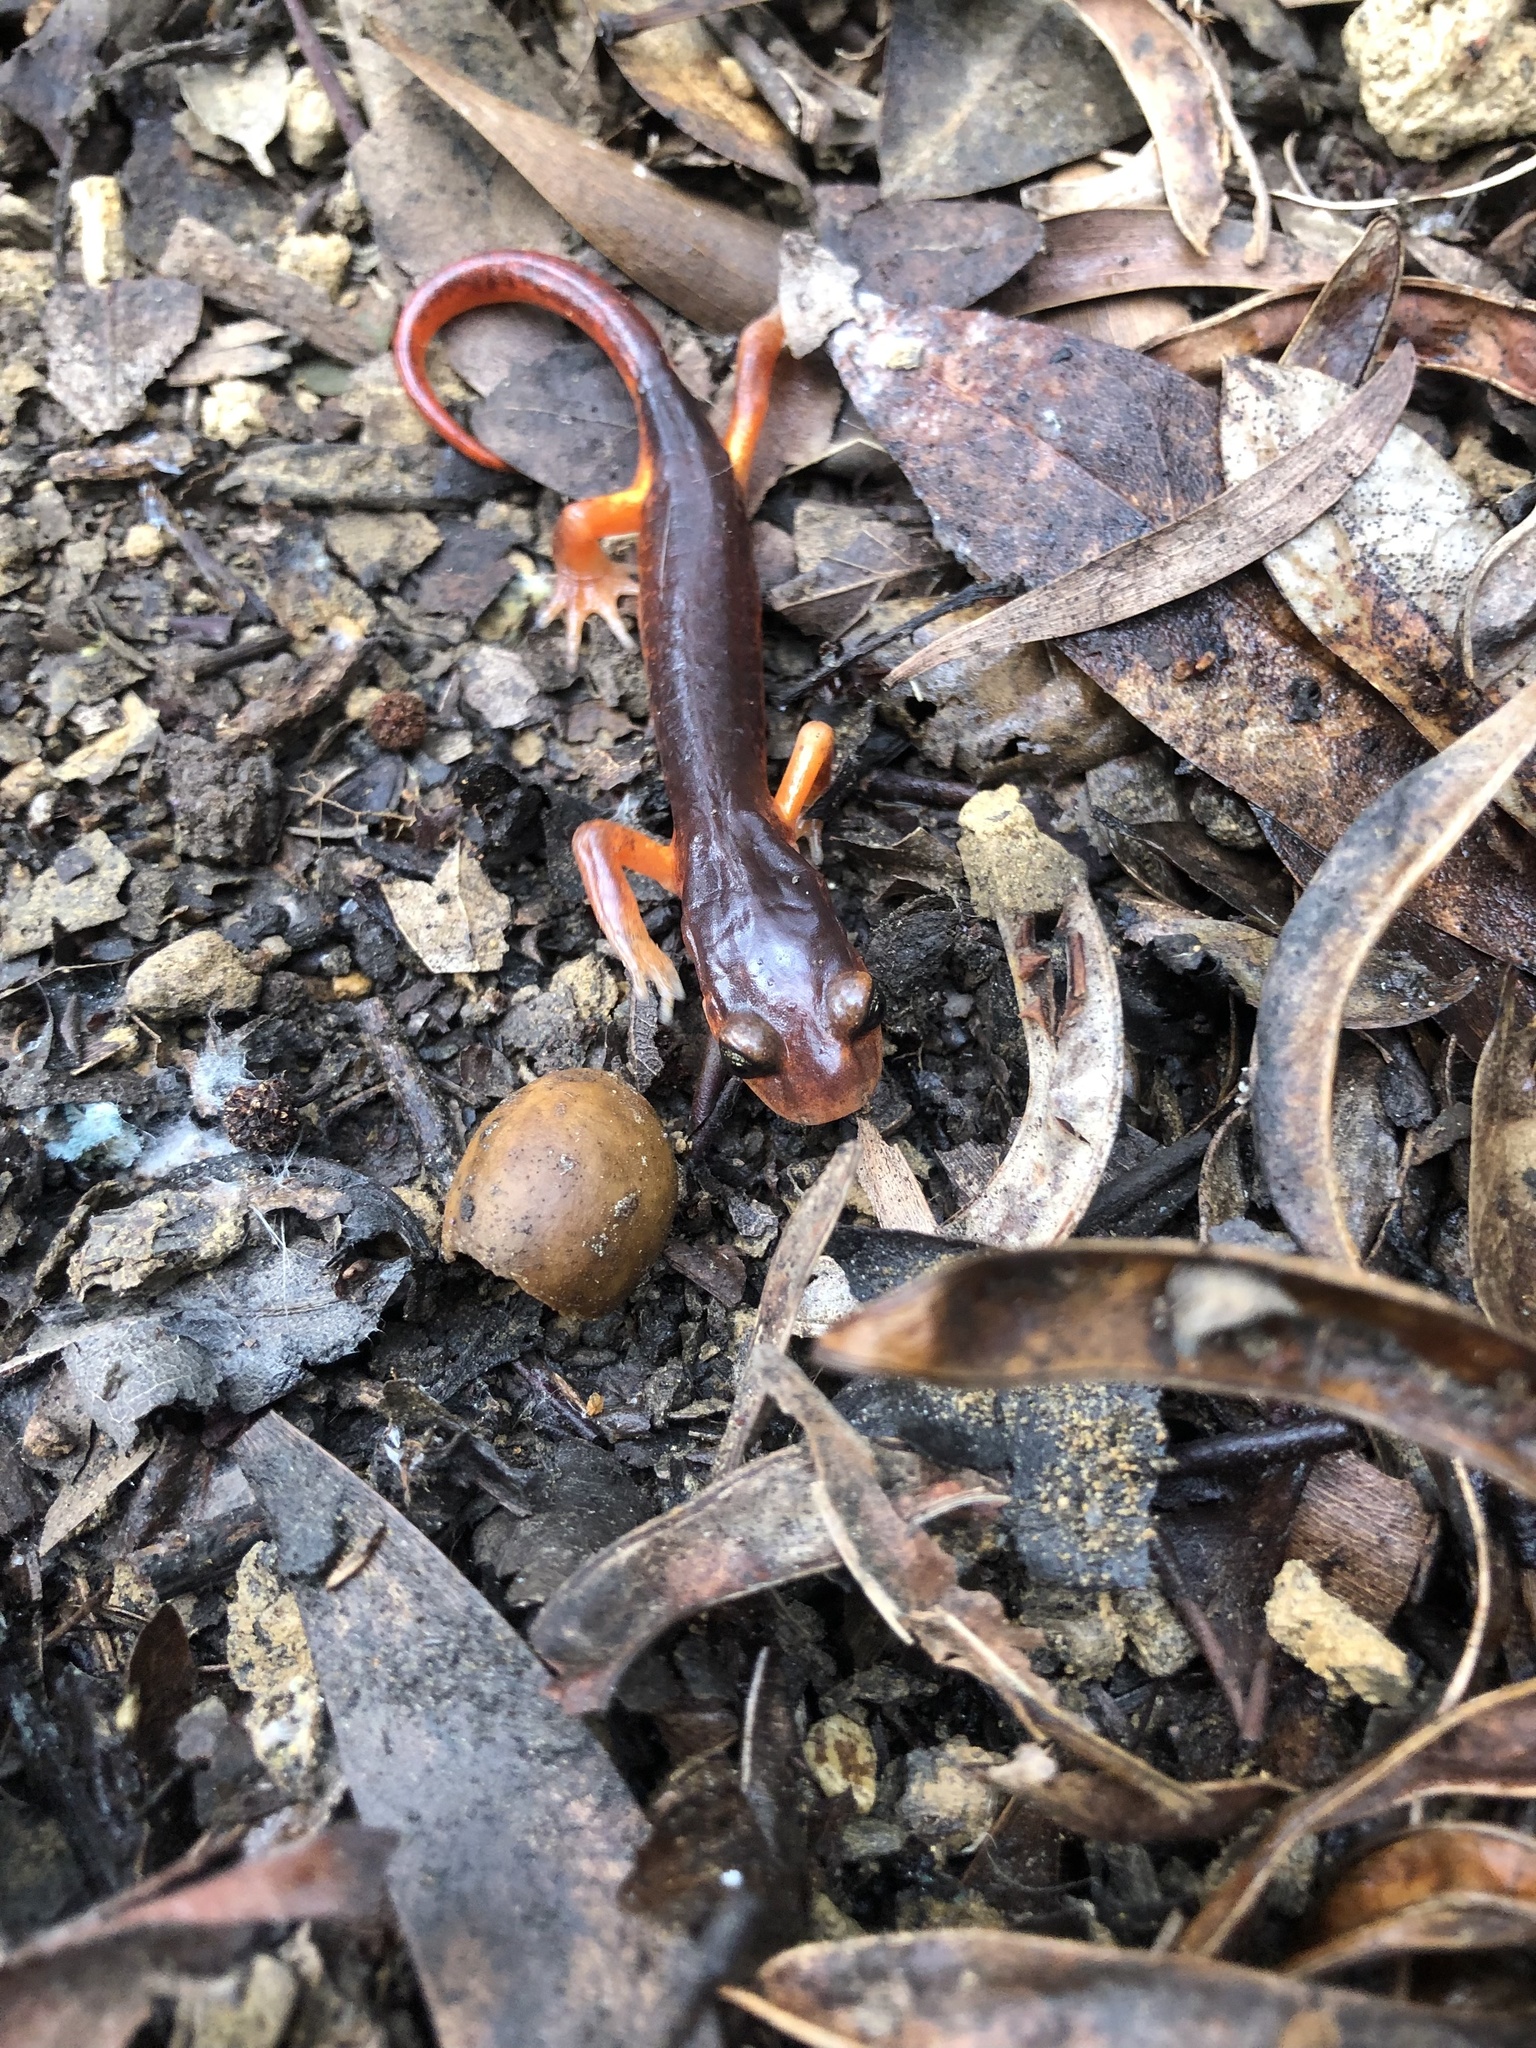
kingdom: Animalia
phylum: Chordata
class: Amphibia
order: Caudata
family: Plethodontidae
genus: Ensatina
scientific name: Ensatina eschscholtzii
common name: Ensatina
